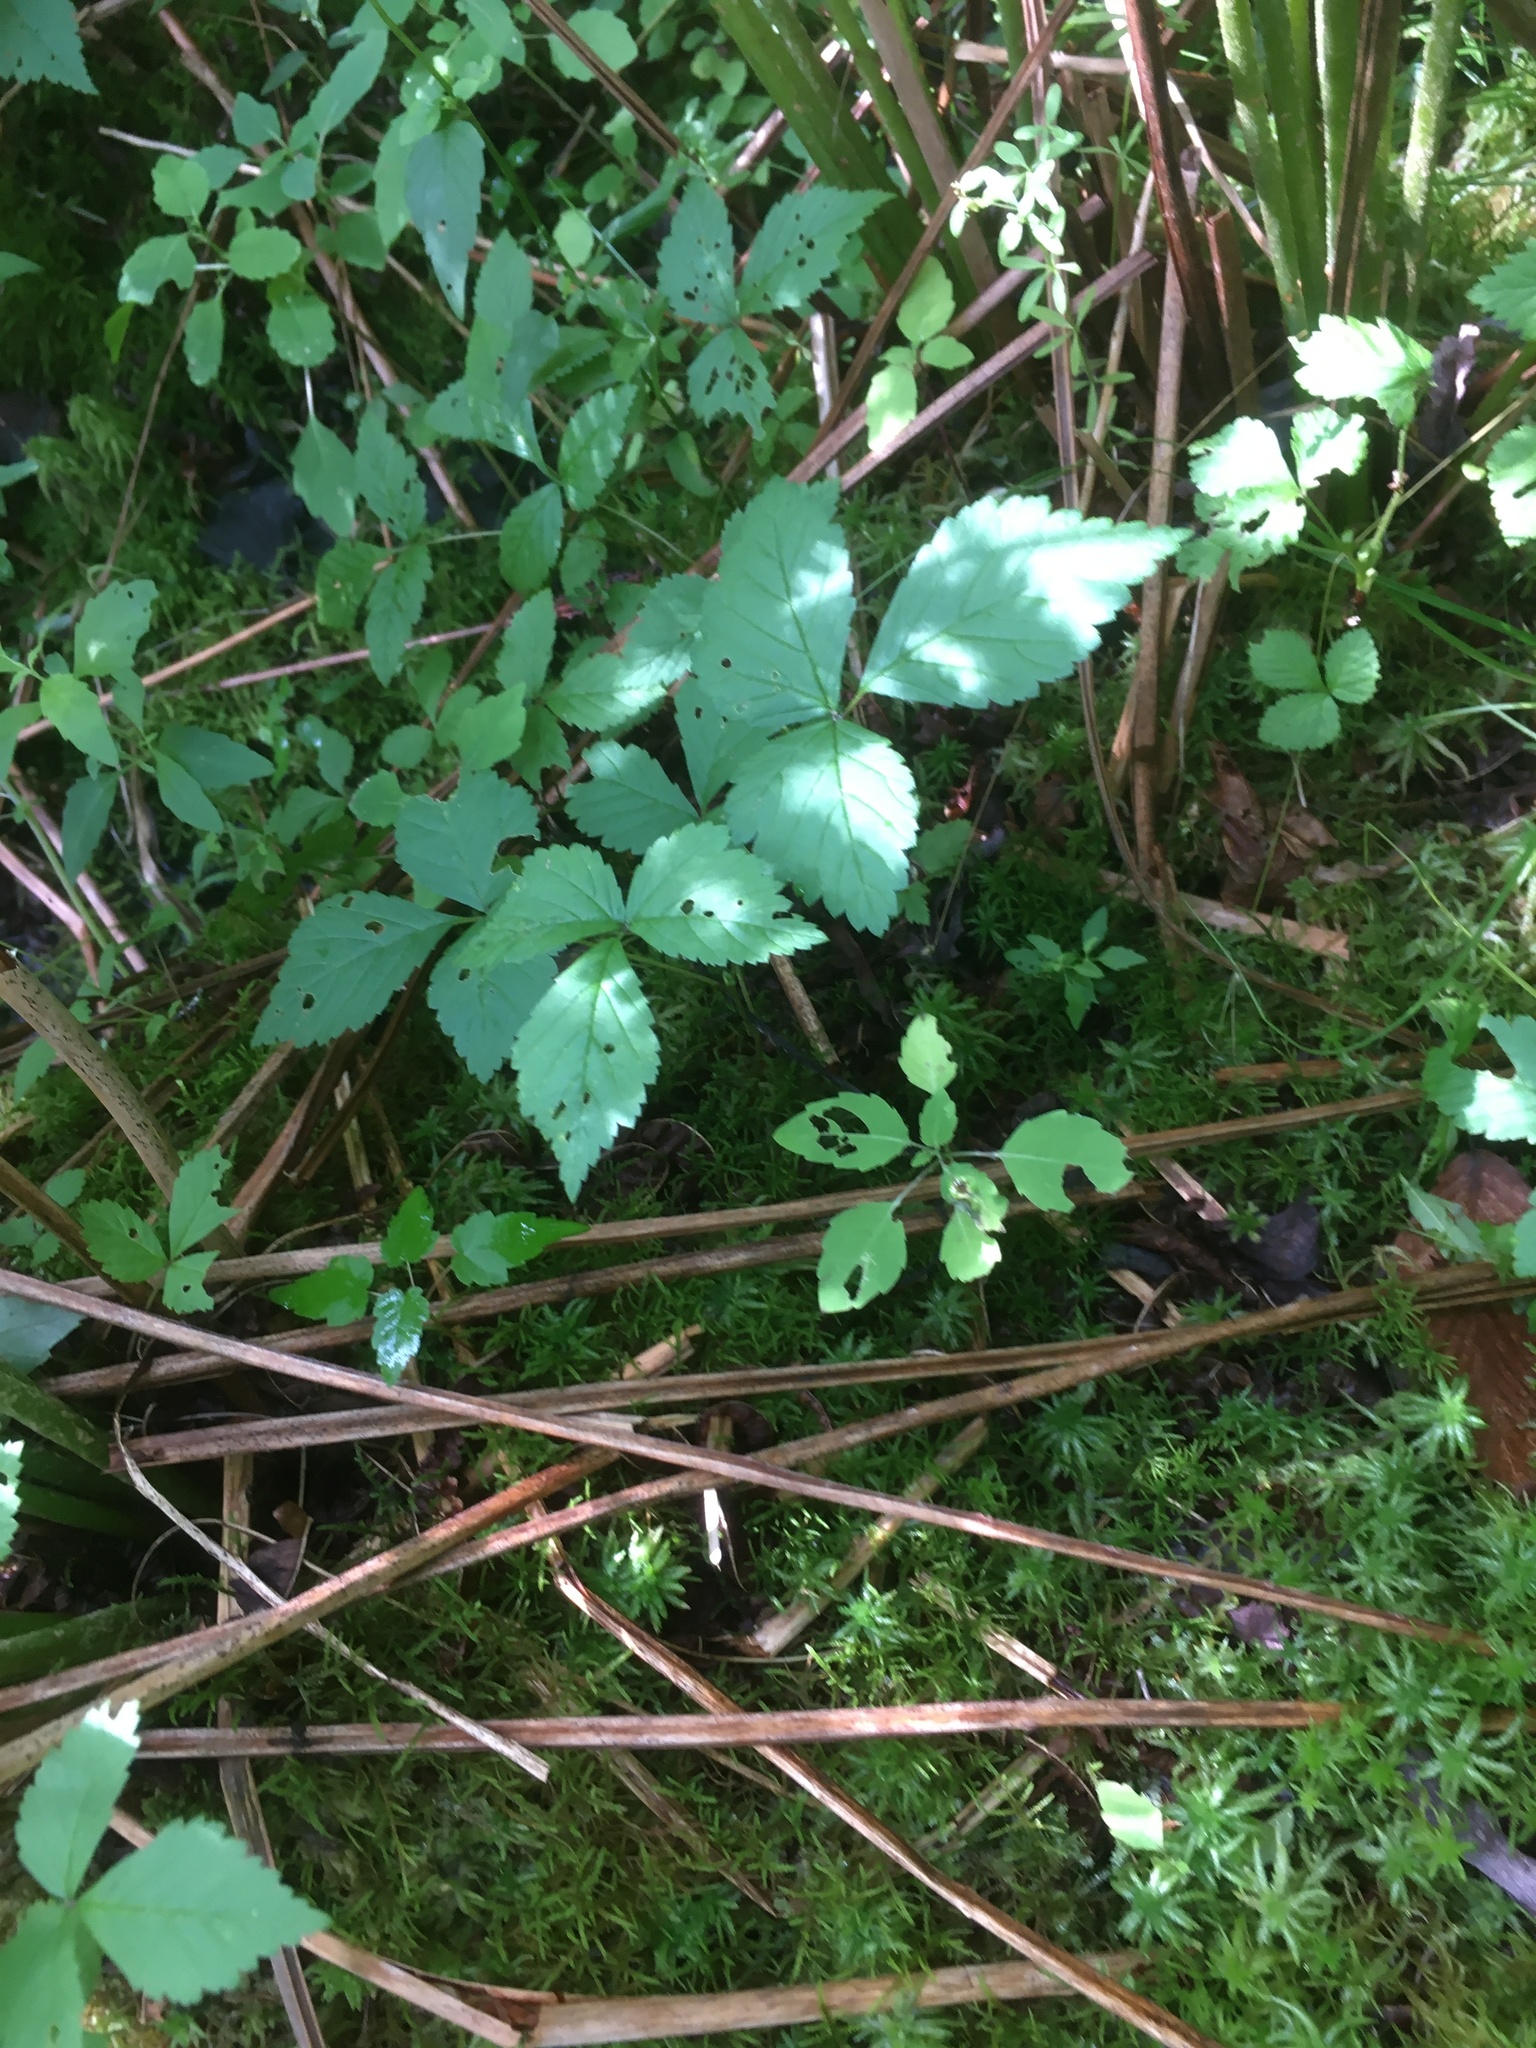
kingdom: Plantae
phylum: Tracheophyta
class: Magnoliopsida
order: Rosales
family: Rosaceae
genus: Rubus
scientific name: Rubus pubescens
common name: Dwarf raspberry
